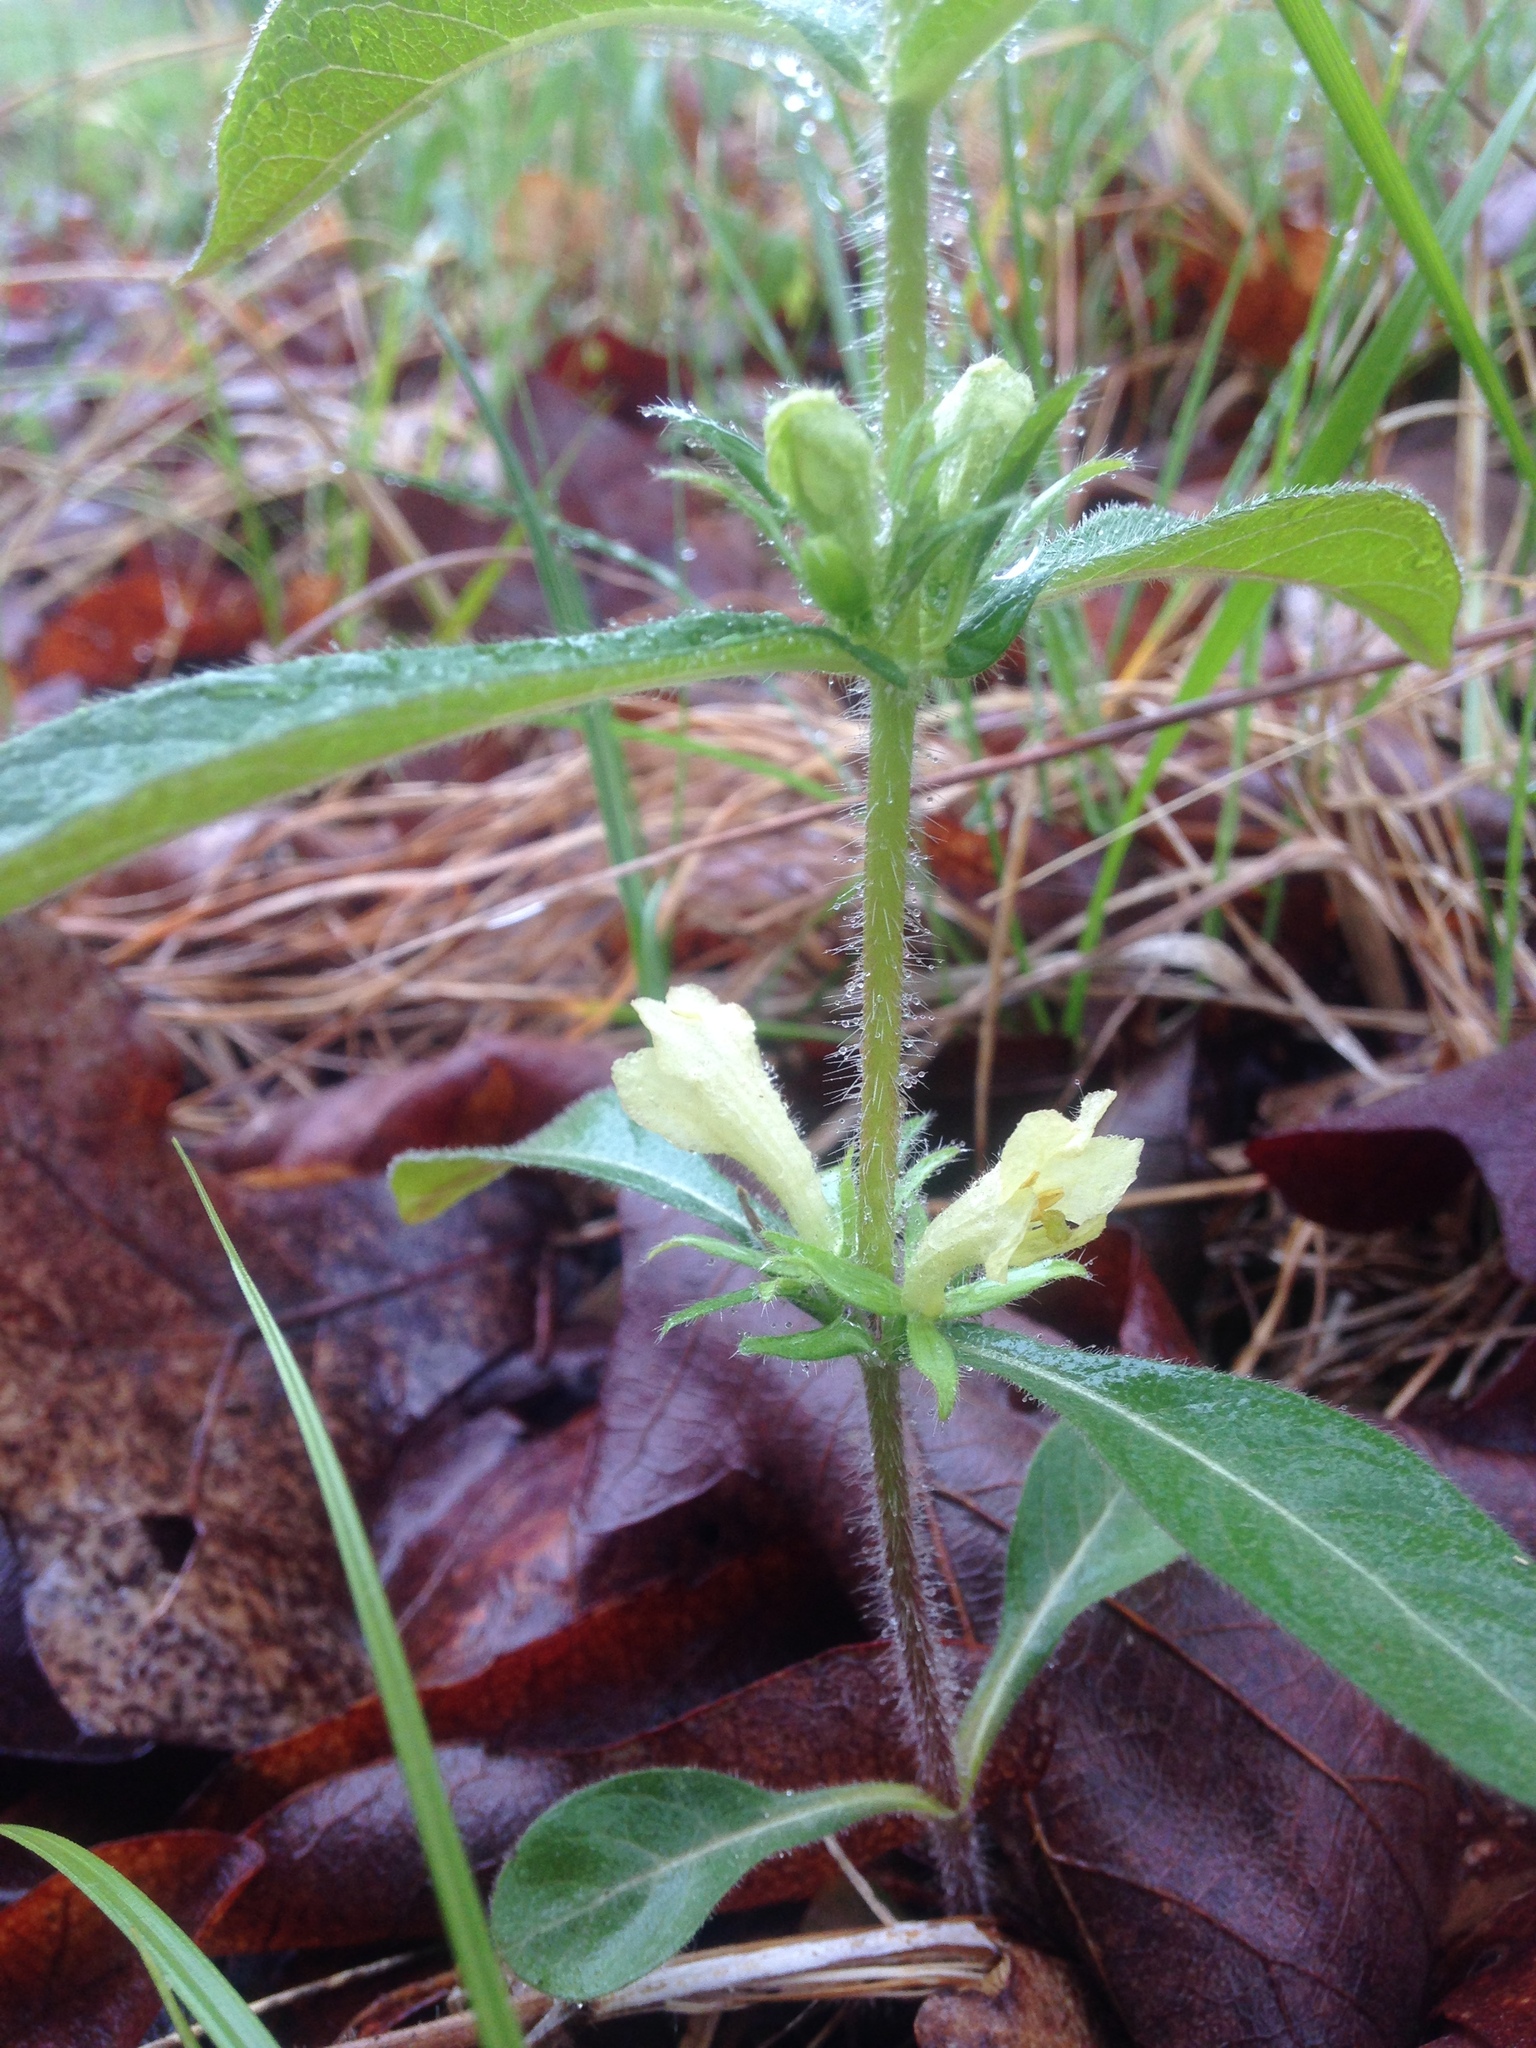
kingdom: Plantae
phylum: Tracheophyta
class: Magnoliopsida
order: Dipsacales
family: Caprifoliaceae
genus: Triosteum
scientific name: Triosteum angustifolium
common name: Narrow-leaved horse-gentian
